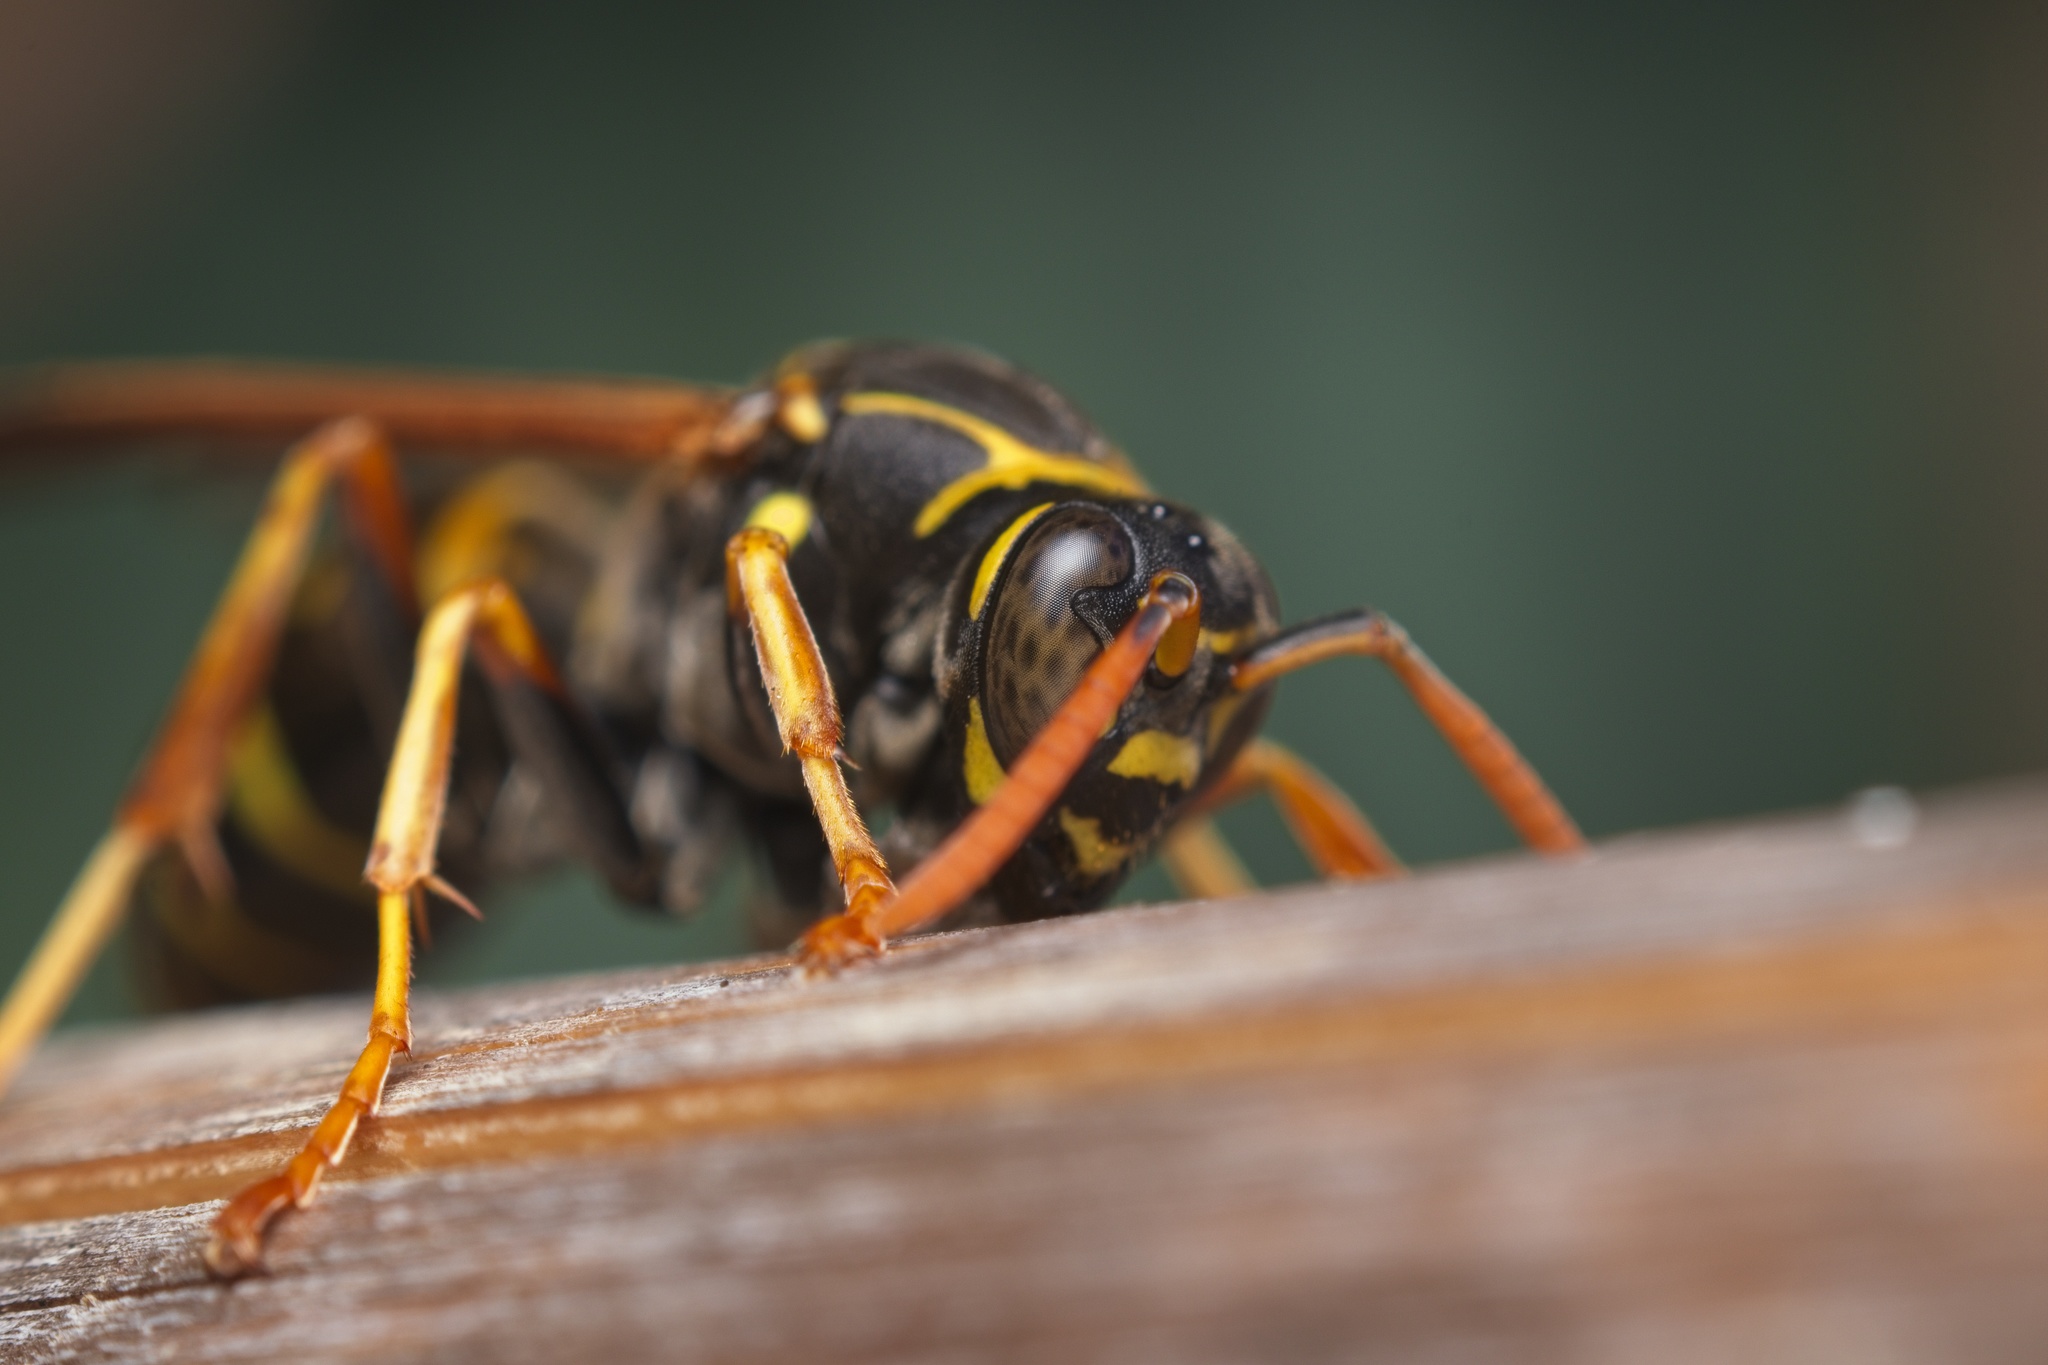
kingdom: Animalia
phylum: Arthropoda
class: Insecta
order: Hymenoptera
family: Eumenidae
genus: Polistes
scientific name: Polistes chinensis
